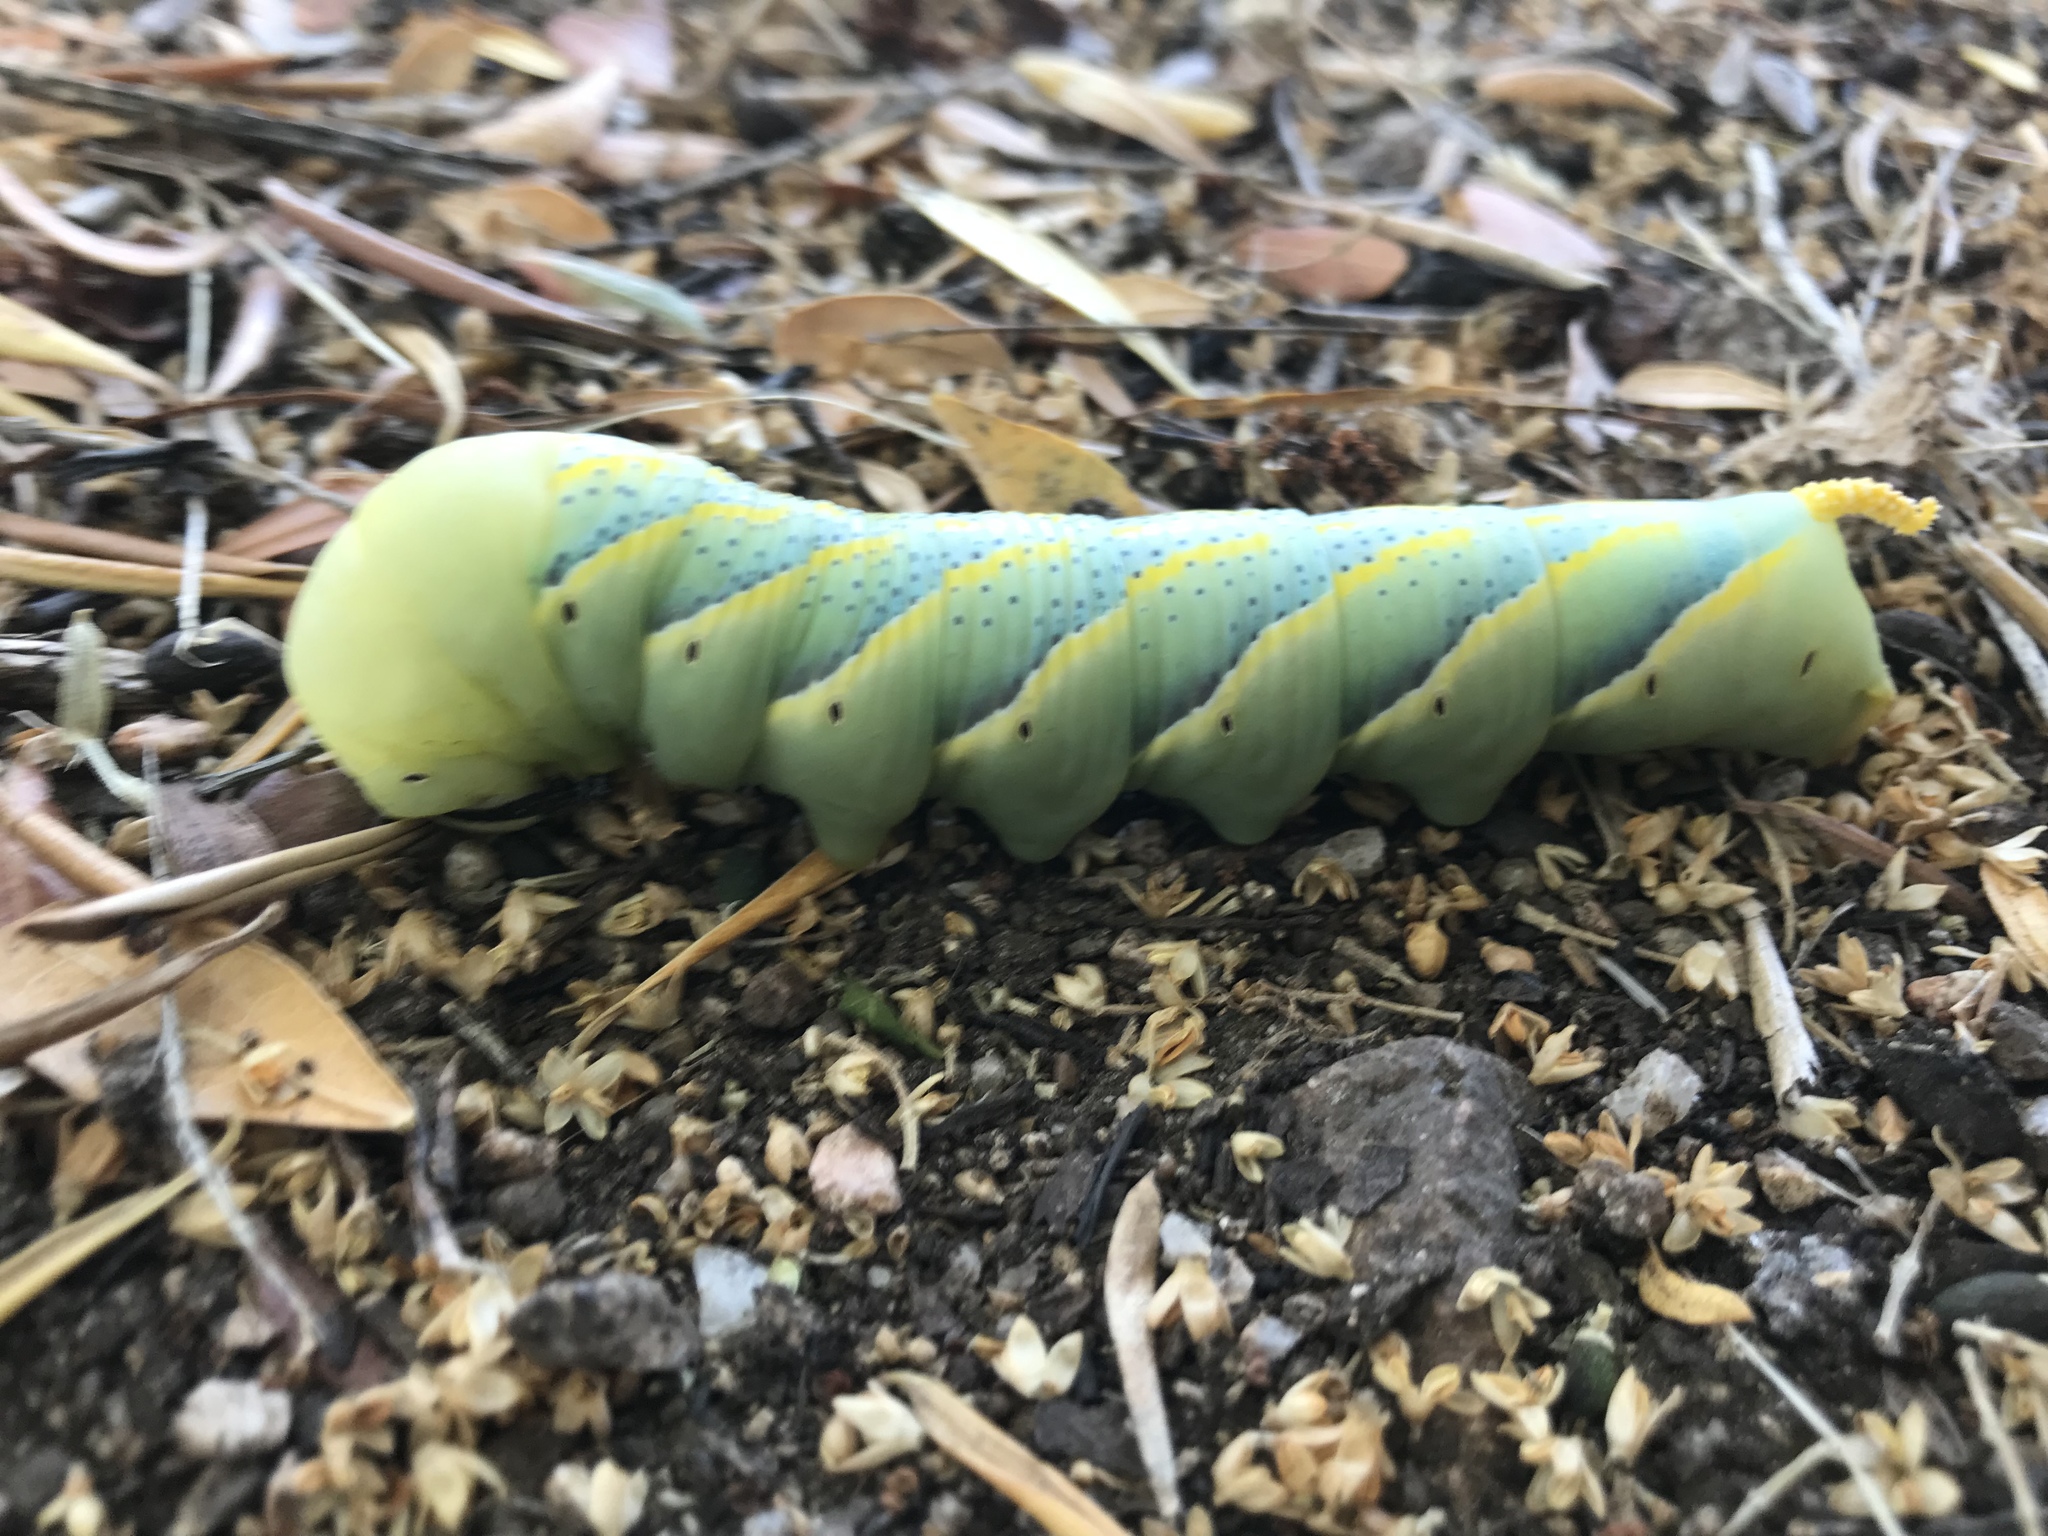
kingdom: Animalia
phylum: Arthropoda
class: Insecta
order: Lepidoptera
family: Sphingidae
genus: Acherontia
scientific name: Acherontia atropos
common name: Death's-head hawk moth
